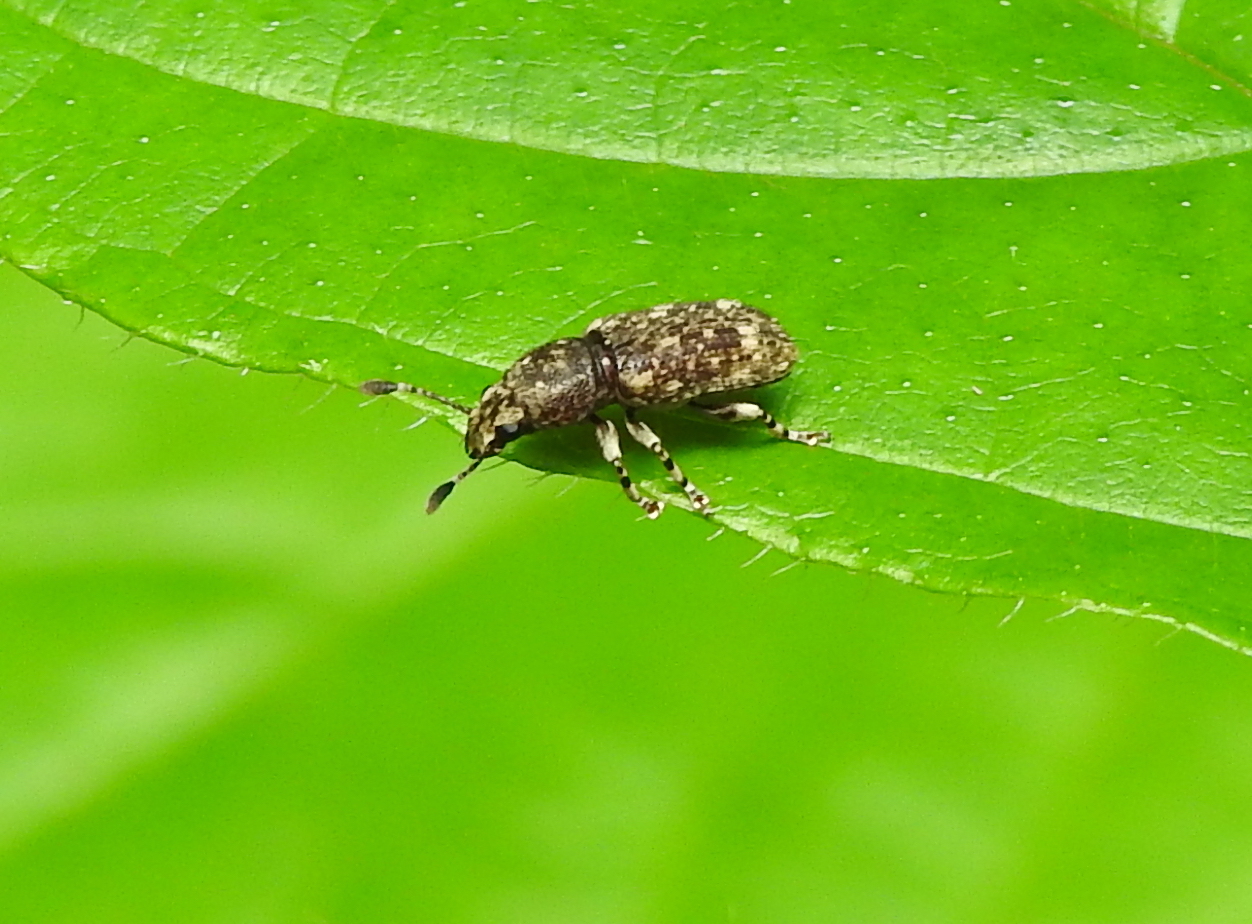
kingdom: Animalia
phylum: Arthropoda
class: Insecta
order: Coleoptera
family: Anthribidae
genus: Eucorynus
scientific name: Eucorynus crassicornis
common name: Fungus weevil
